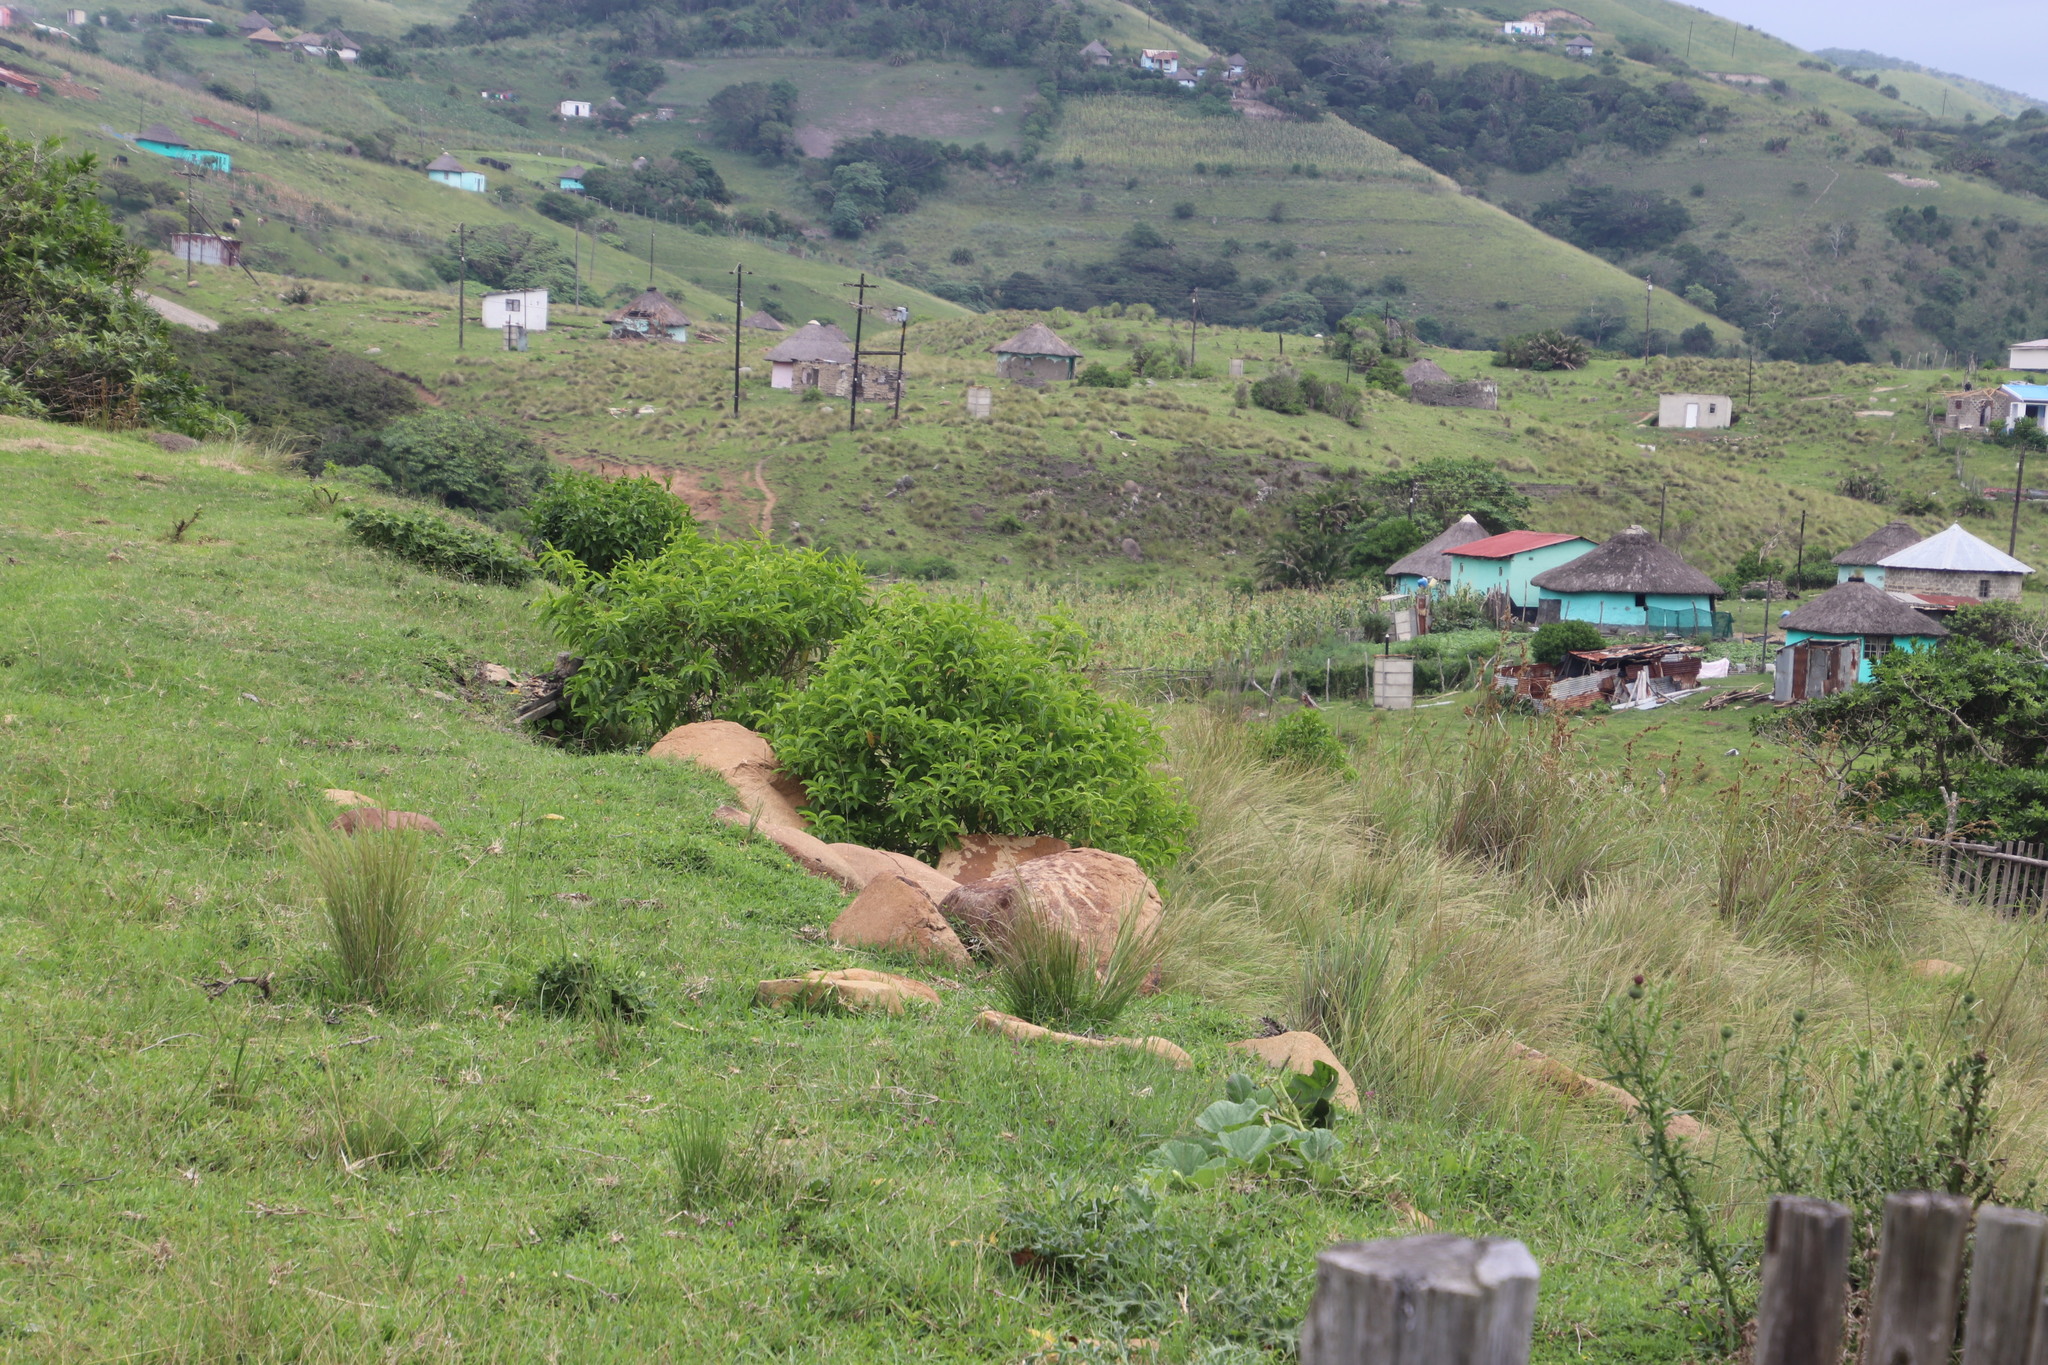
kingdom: Plantae
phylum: Tracheophyta
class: Magnoliopsida
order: Solanales
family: Solanaceae
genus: Cestrum
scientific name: Cestrum laevigatum
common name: Inkberry
